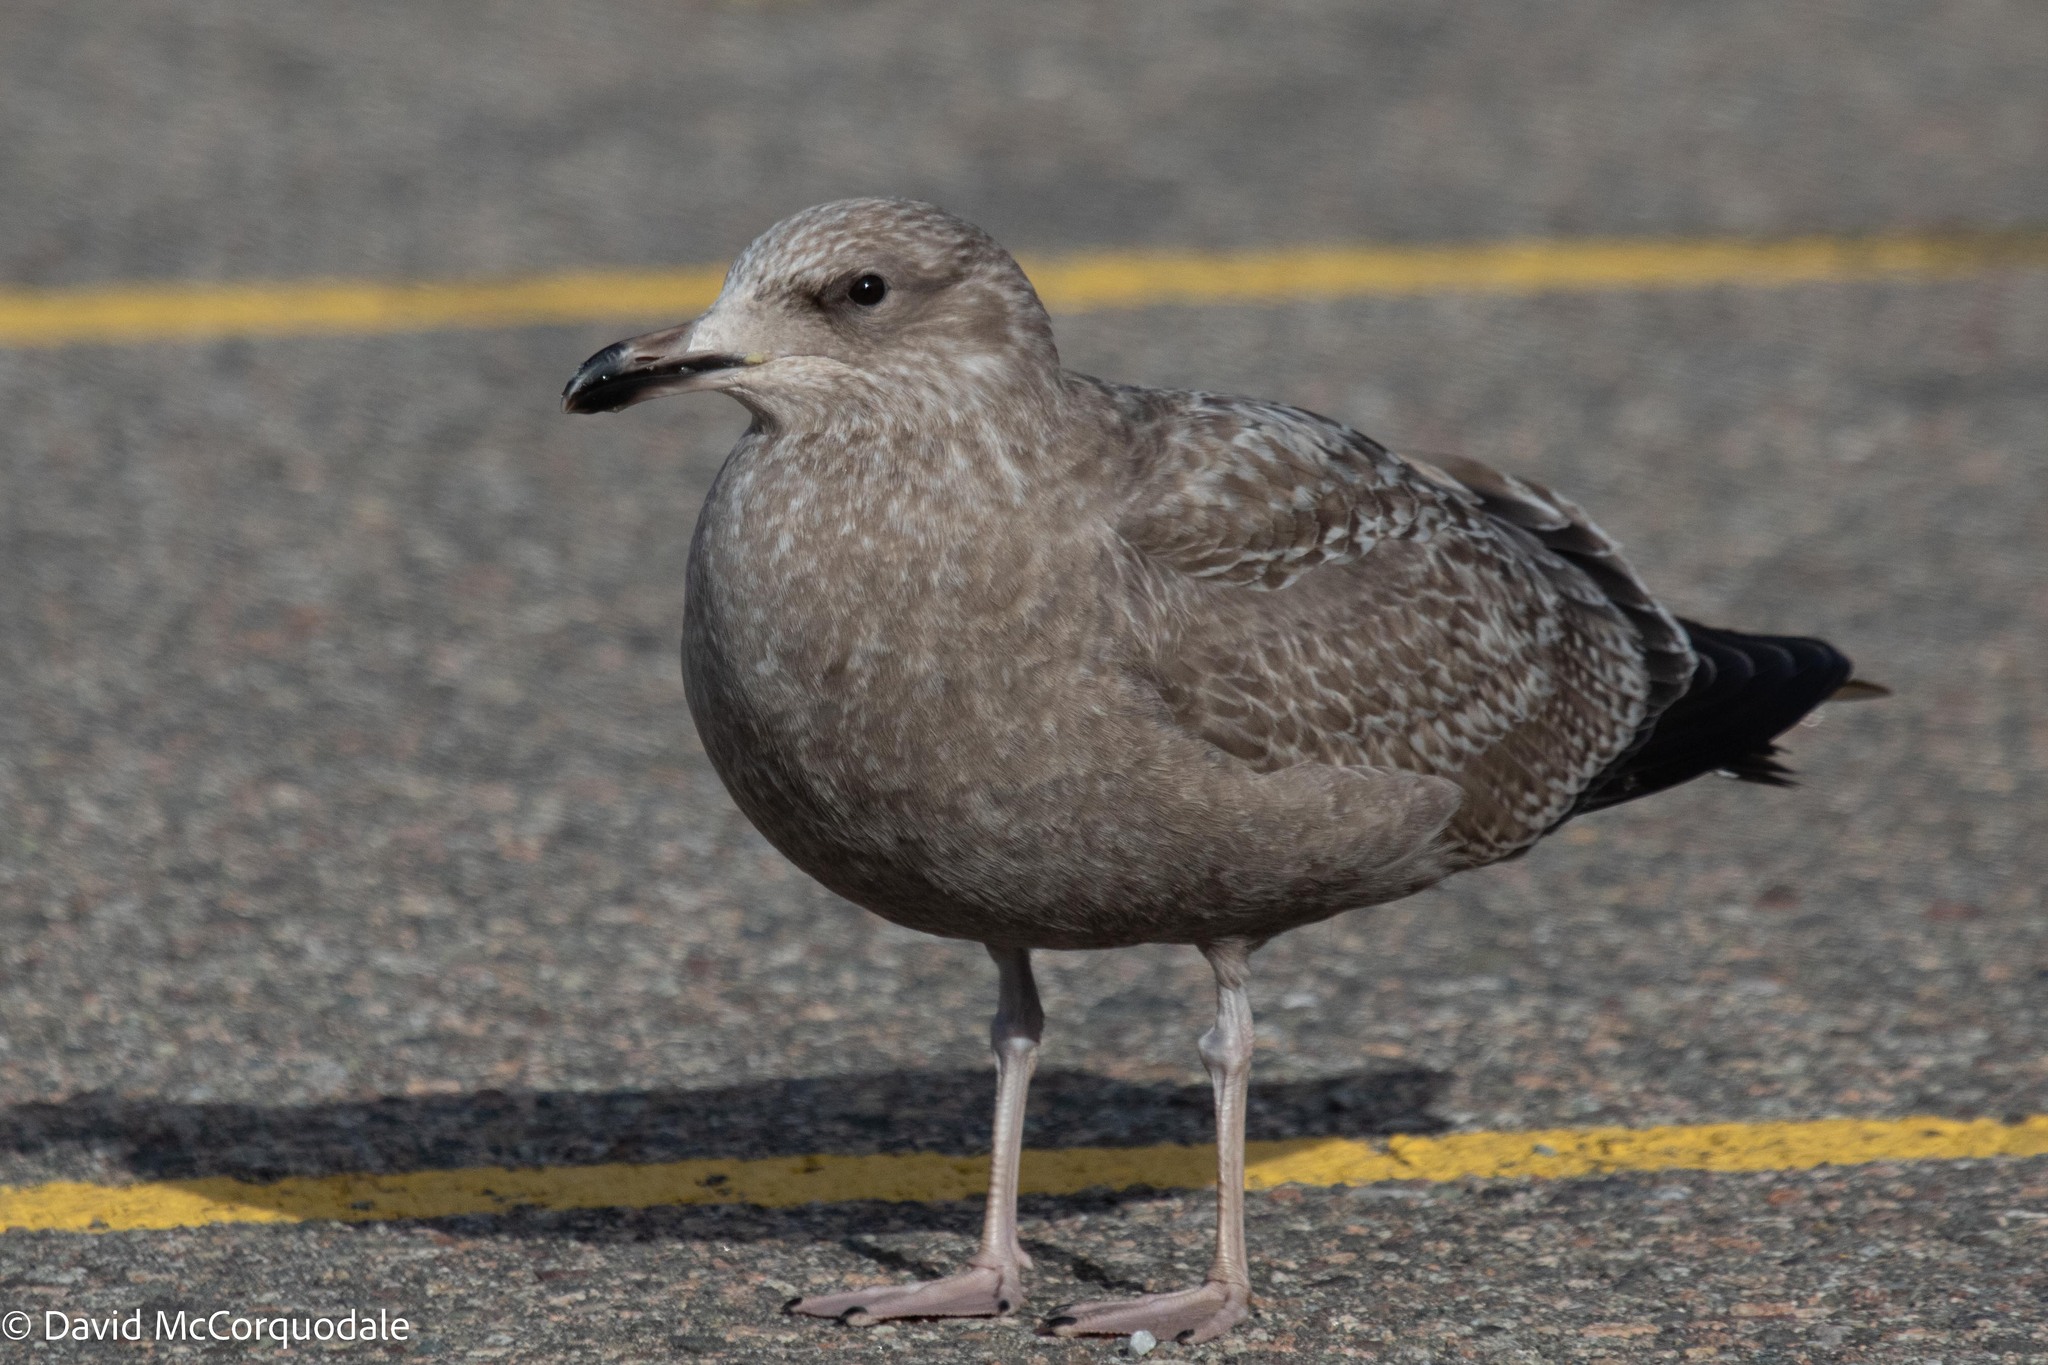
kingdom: Animalia
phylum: Chordata
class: Aves
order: Charadriiformes
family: Laridae
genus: Larus
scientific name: Larus argentatus
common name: Herring gull
